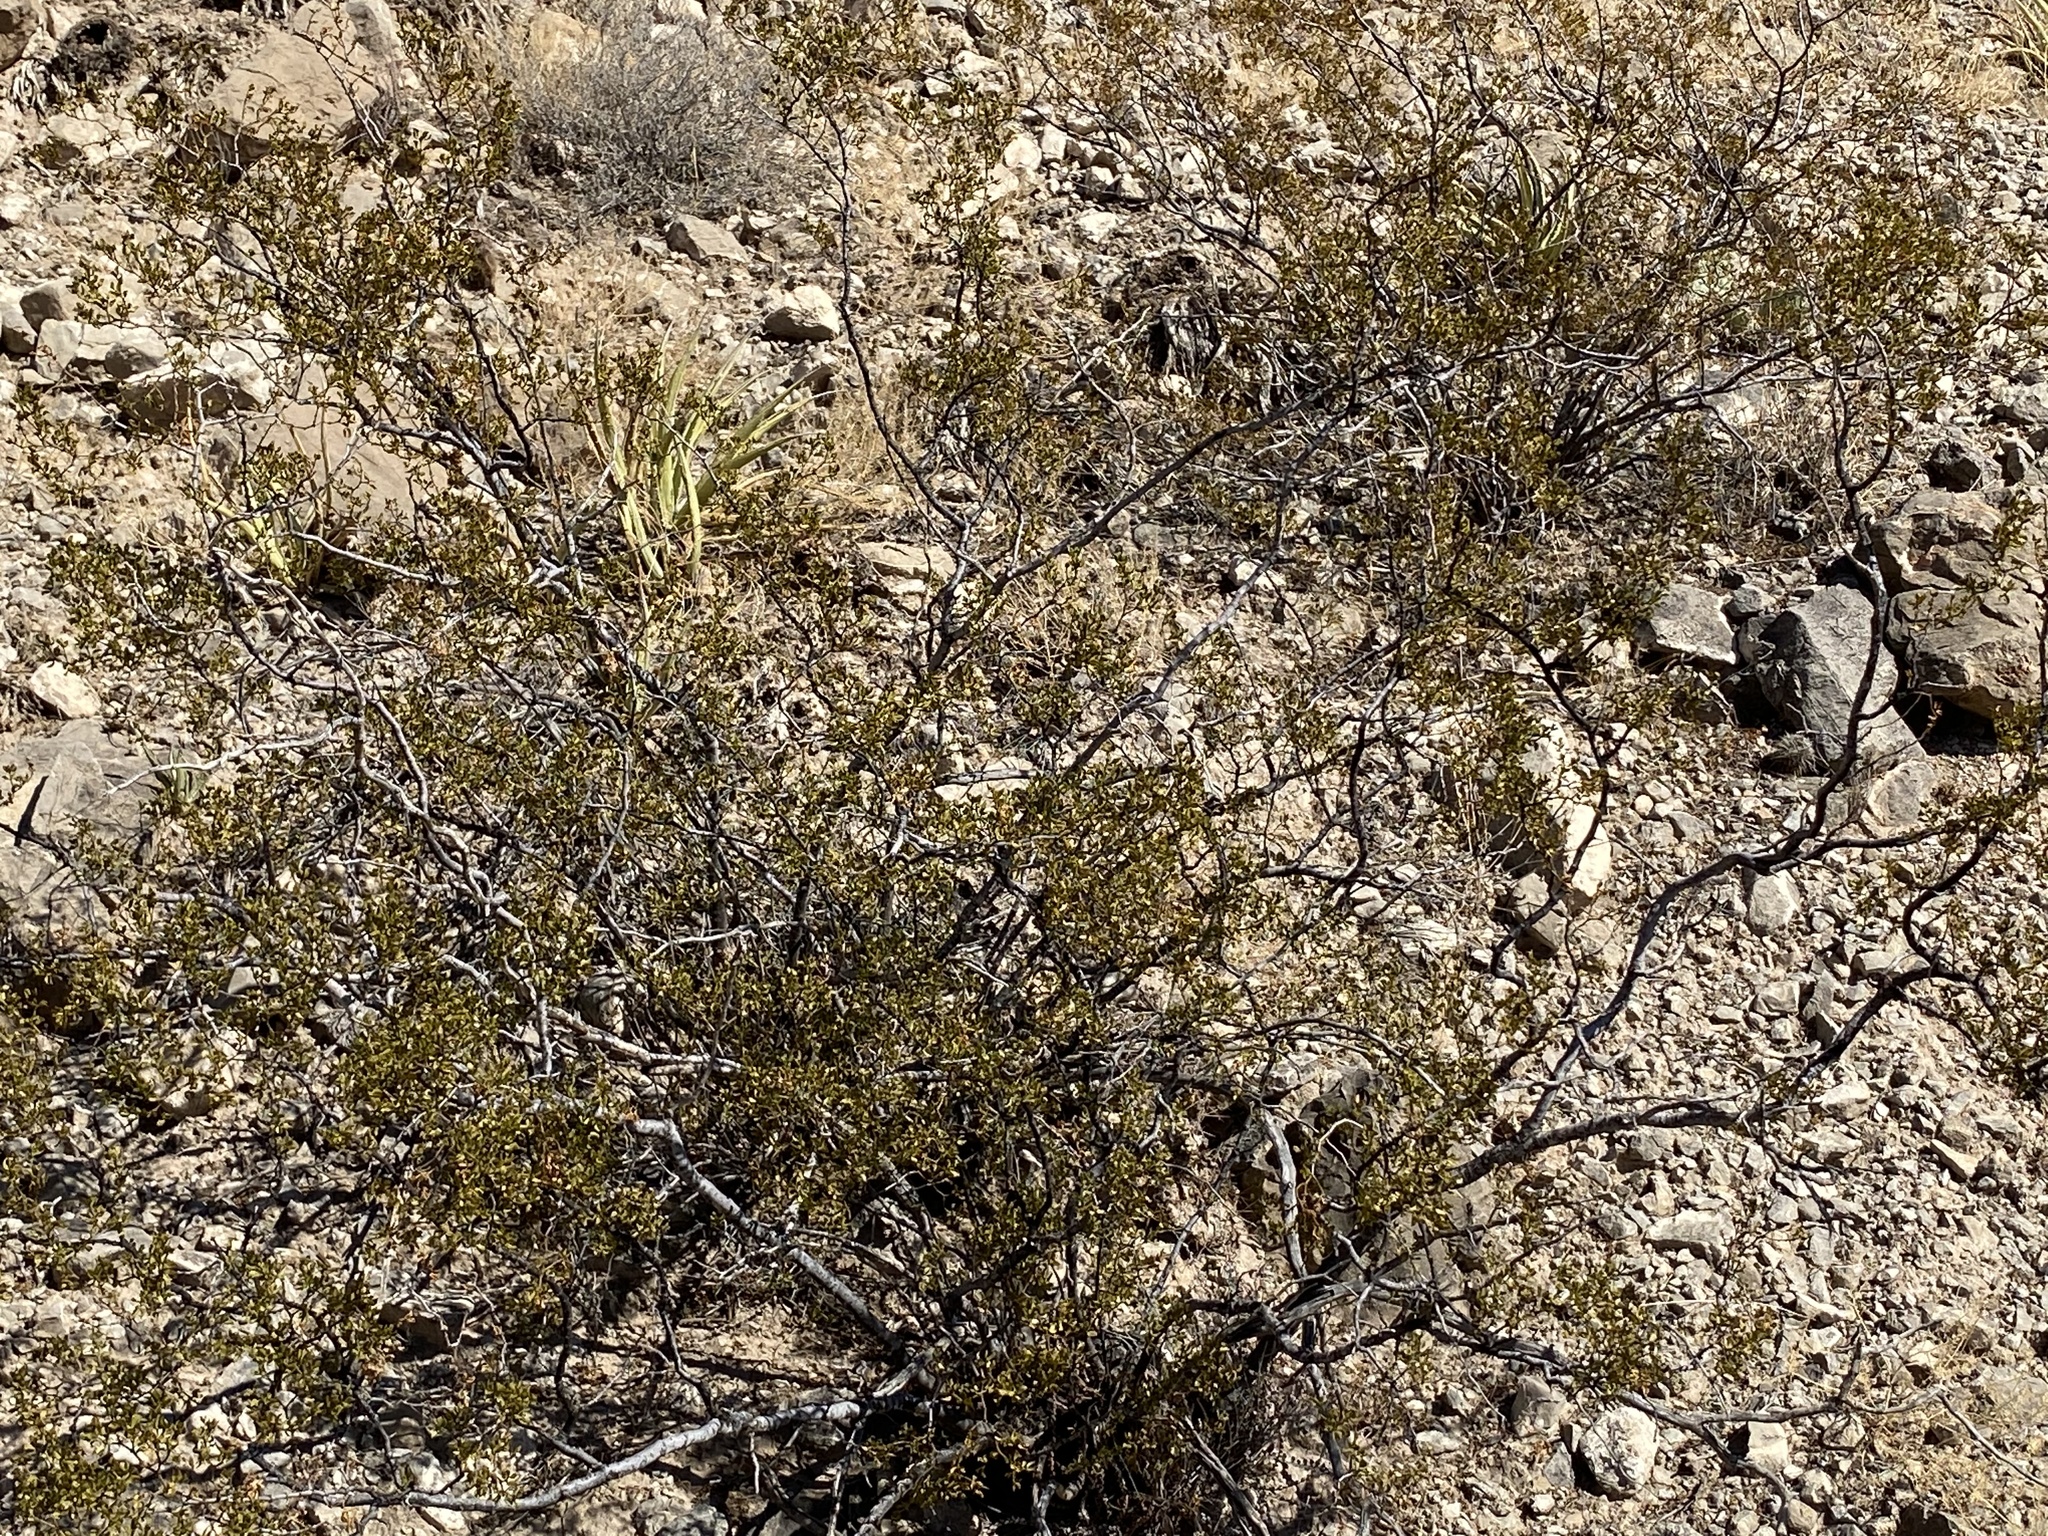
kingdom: Plantae
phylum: Tracheophyta
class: Magnoliopsida
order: Zygophyllales
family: Zygophyllaceae
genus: Larrea
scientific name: Larrea tridentata
